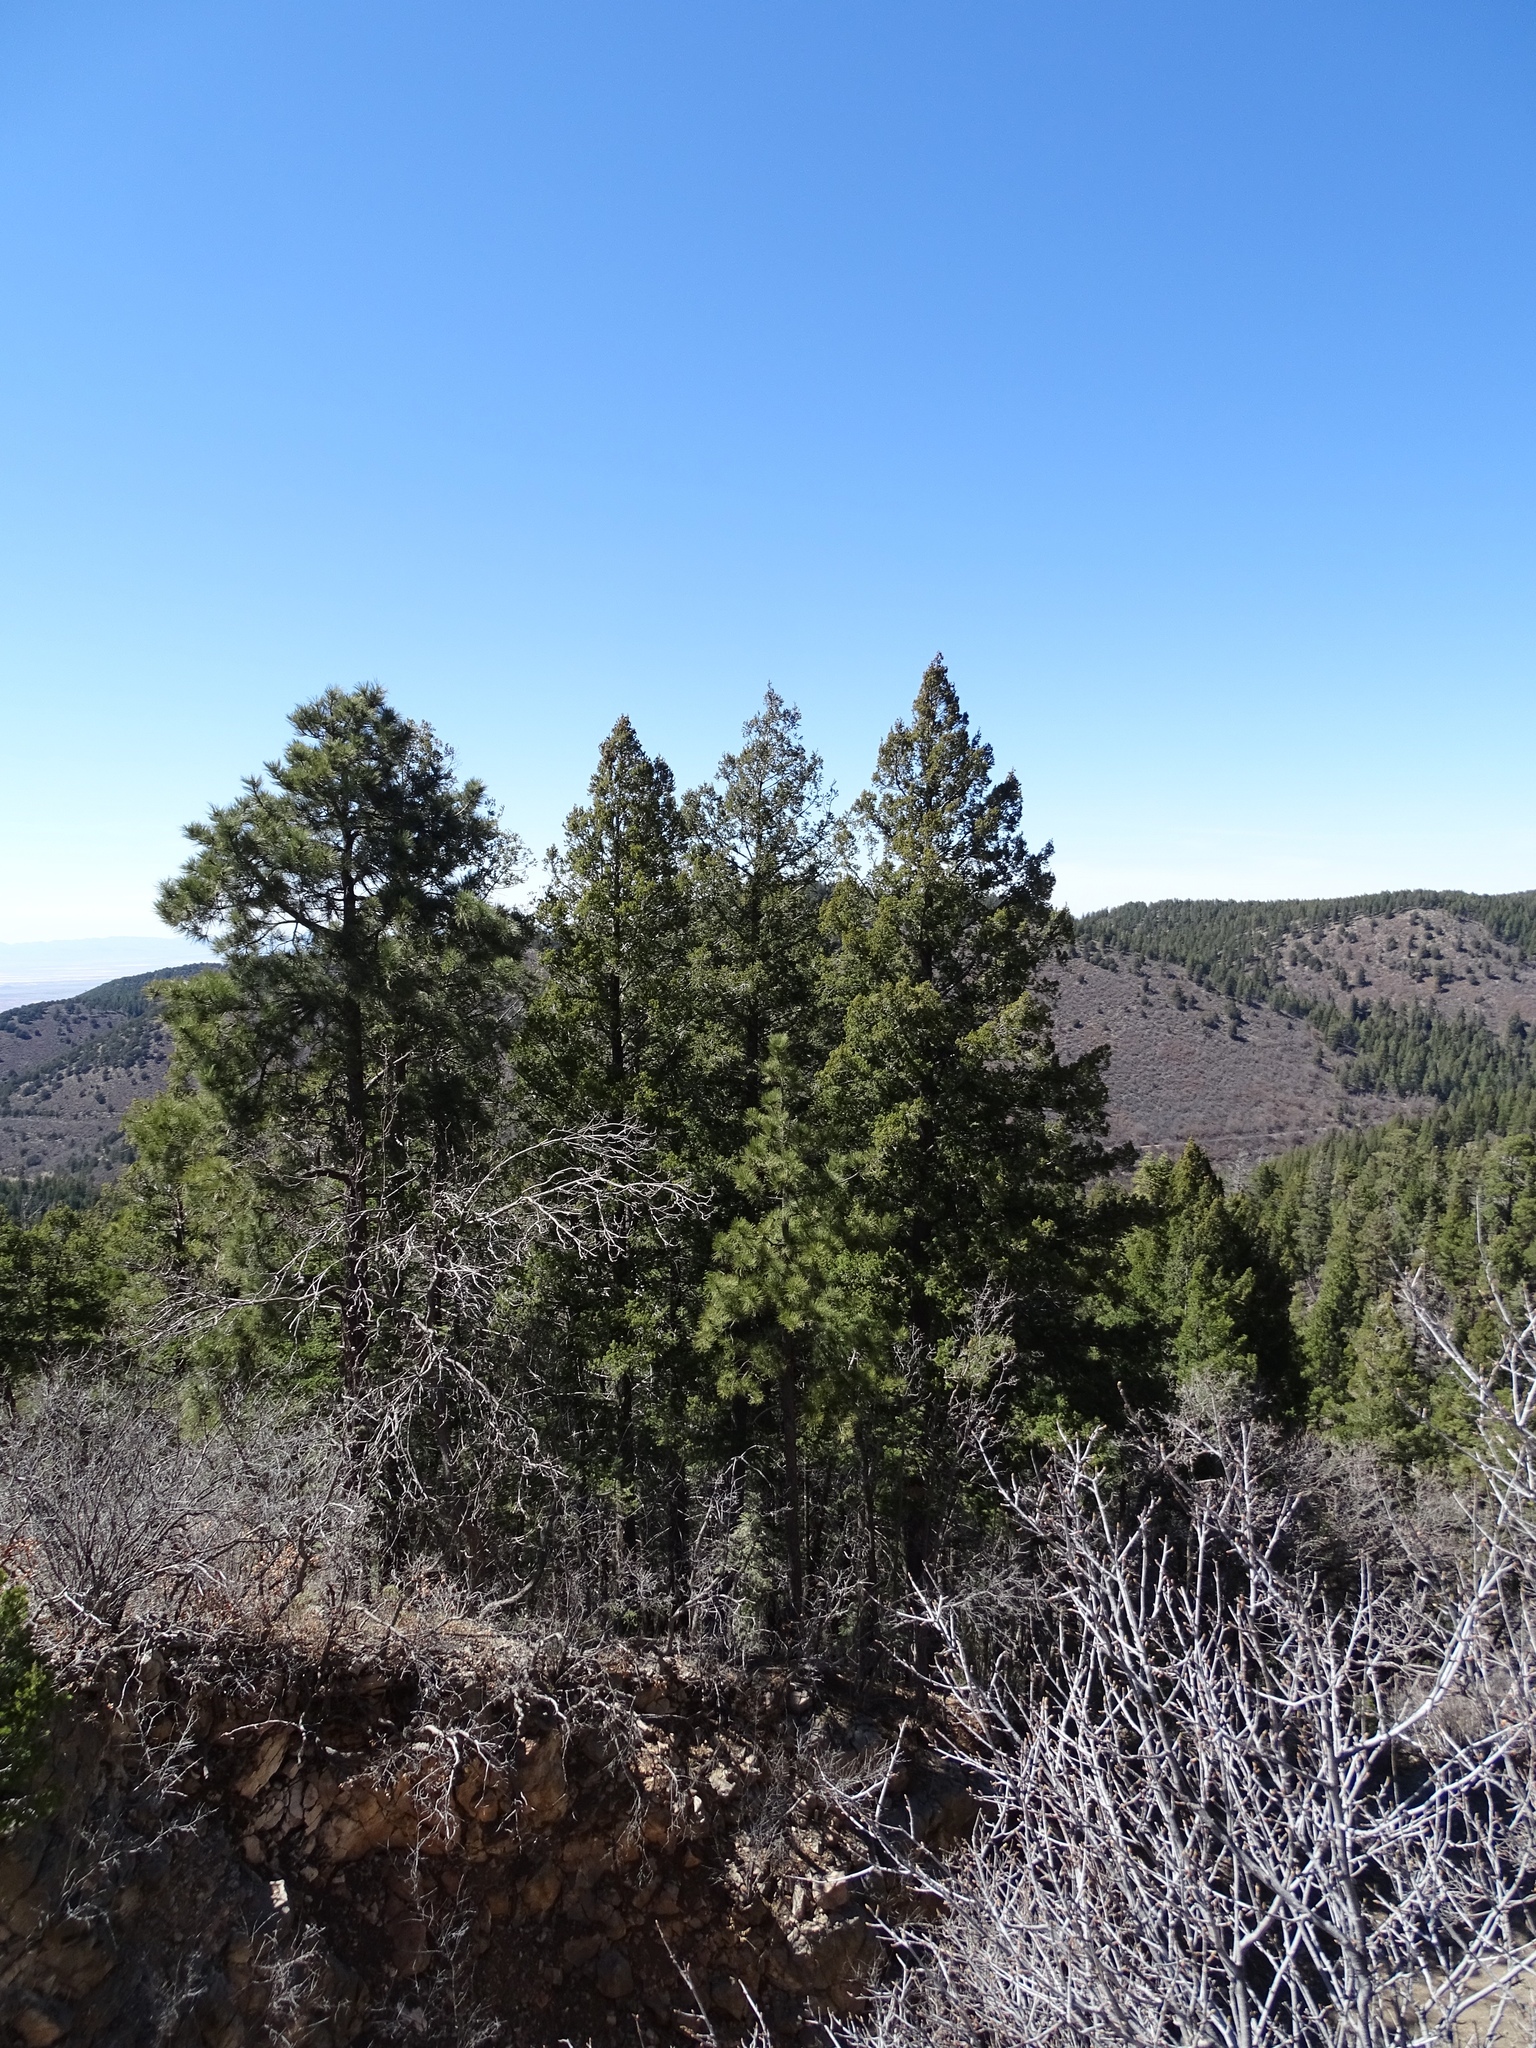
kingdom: Plantae
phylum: Tracheophyta
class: Pinopsida
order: Pinales
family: Pinaceae
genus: Pseudotsuga
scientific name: Pseudotsuga menziesii
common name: Douglas fir
